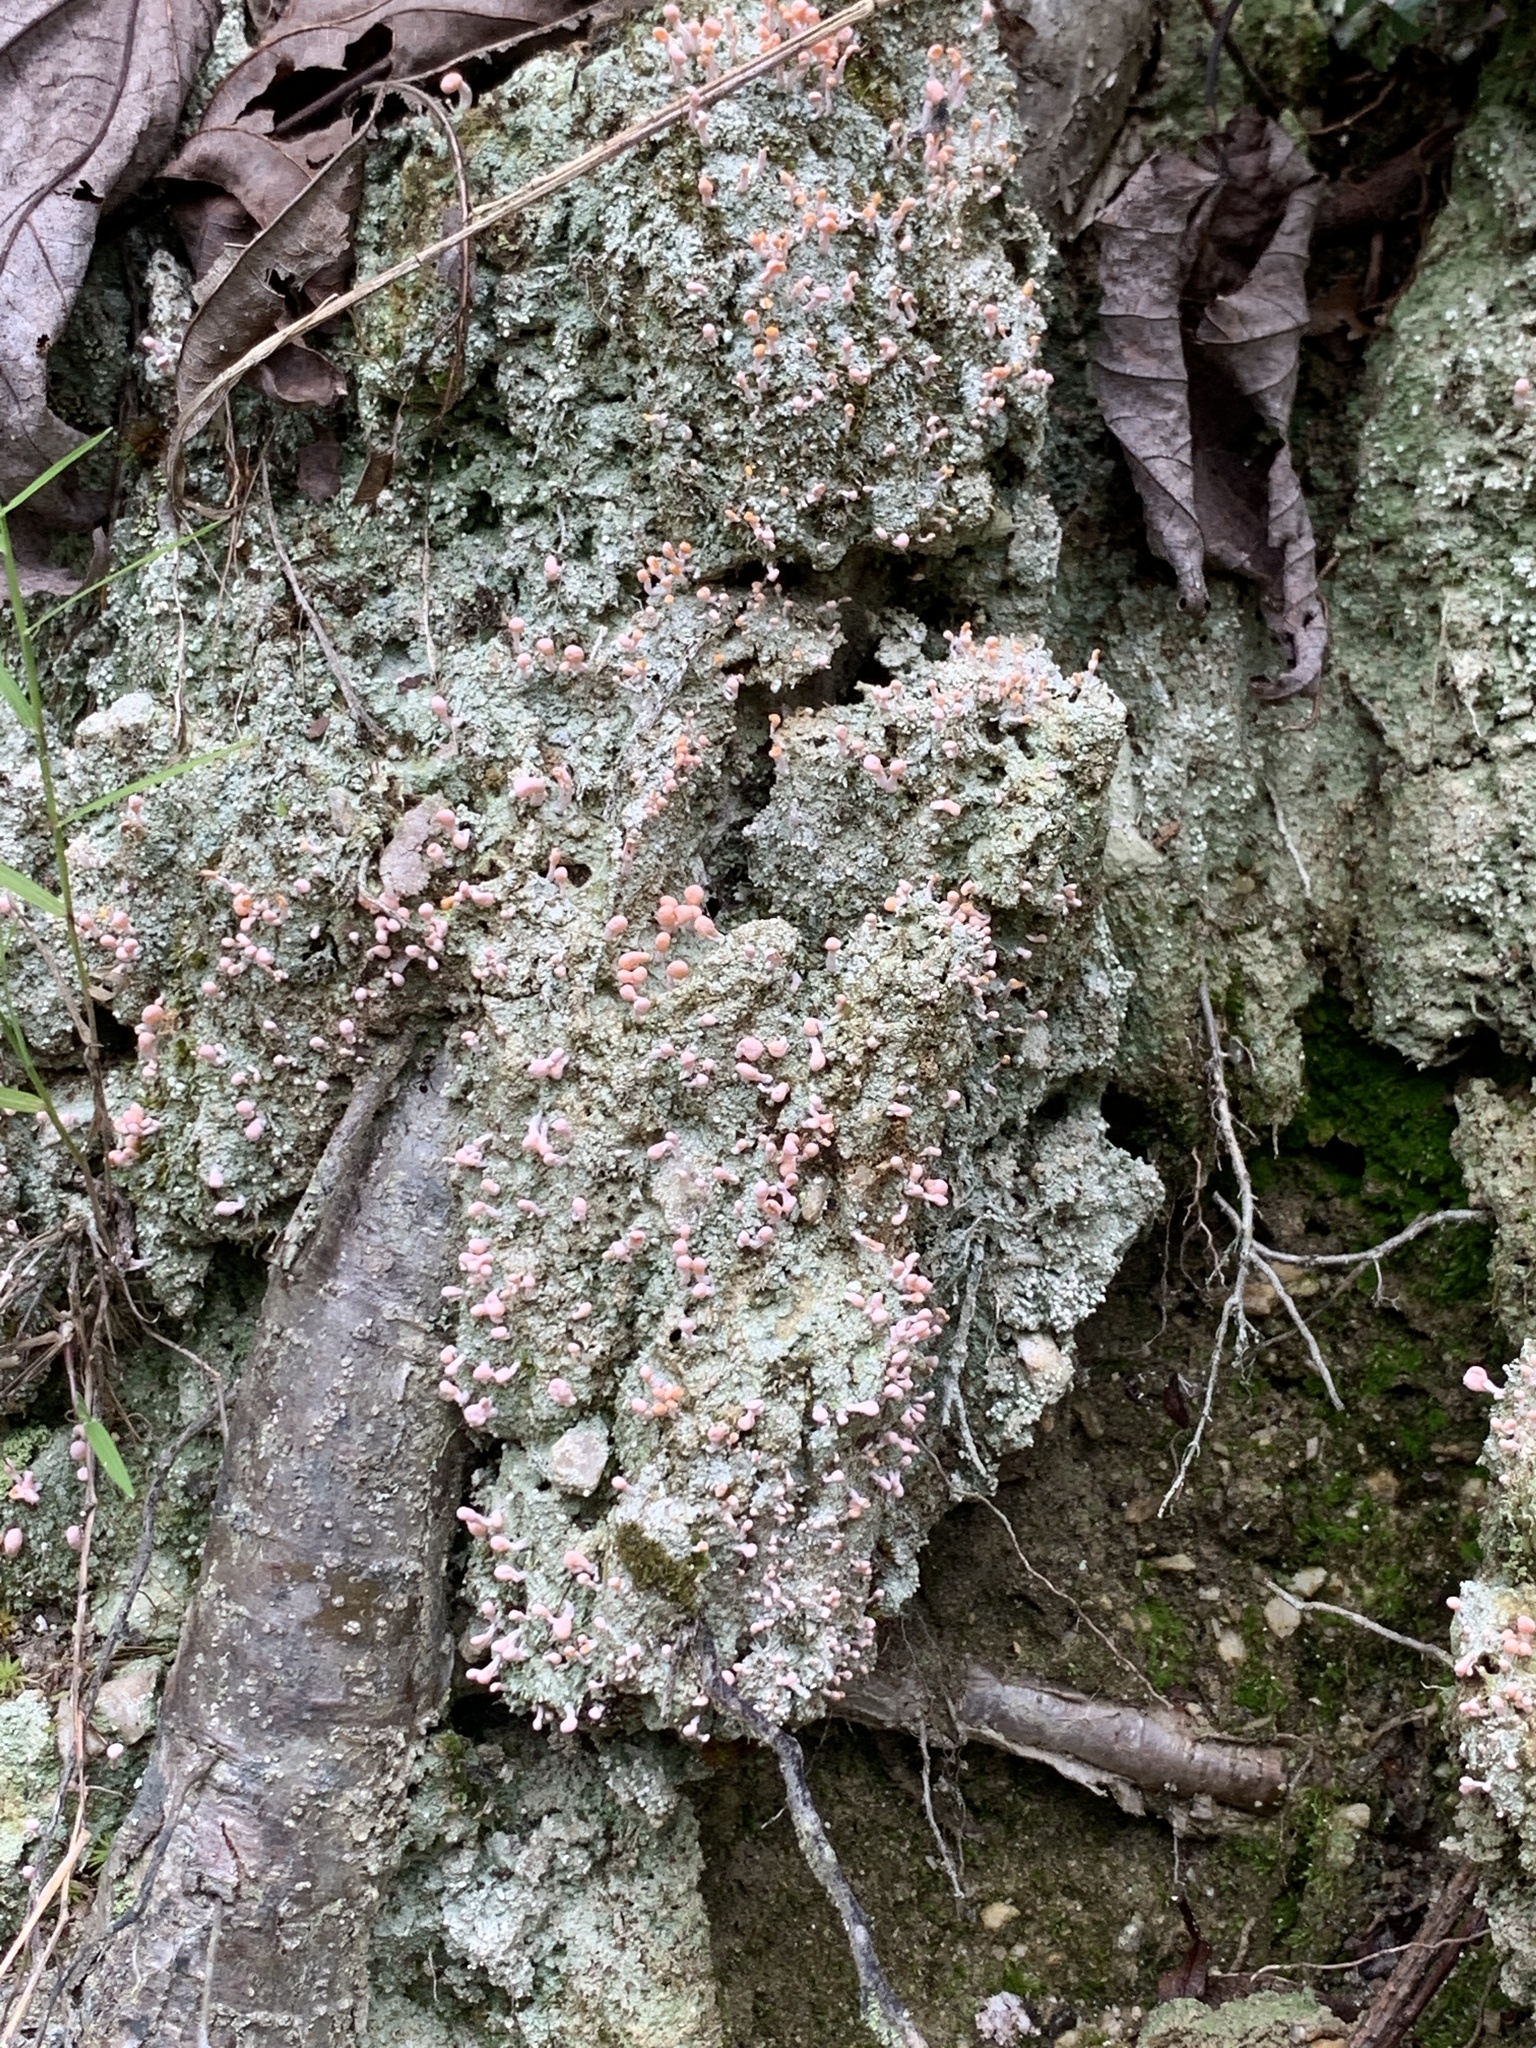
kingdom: Fungi
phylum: Ascomycota
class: Lecanoromycetes
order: Pertusariales
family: Icmadophilaceae
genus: Dibaeis
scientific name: Dibaeis baeomyces
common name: Pink earth lichen
